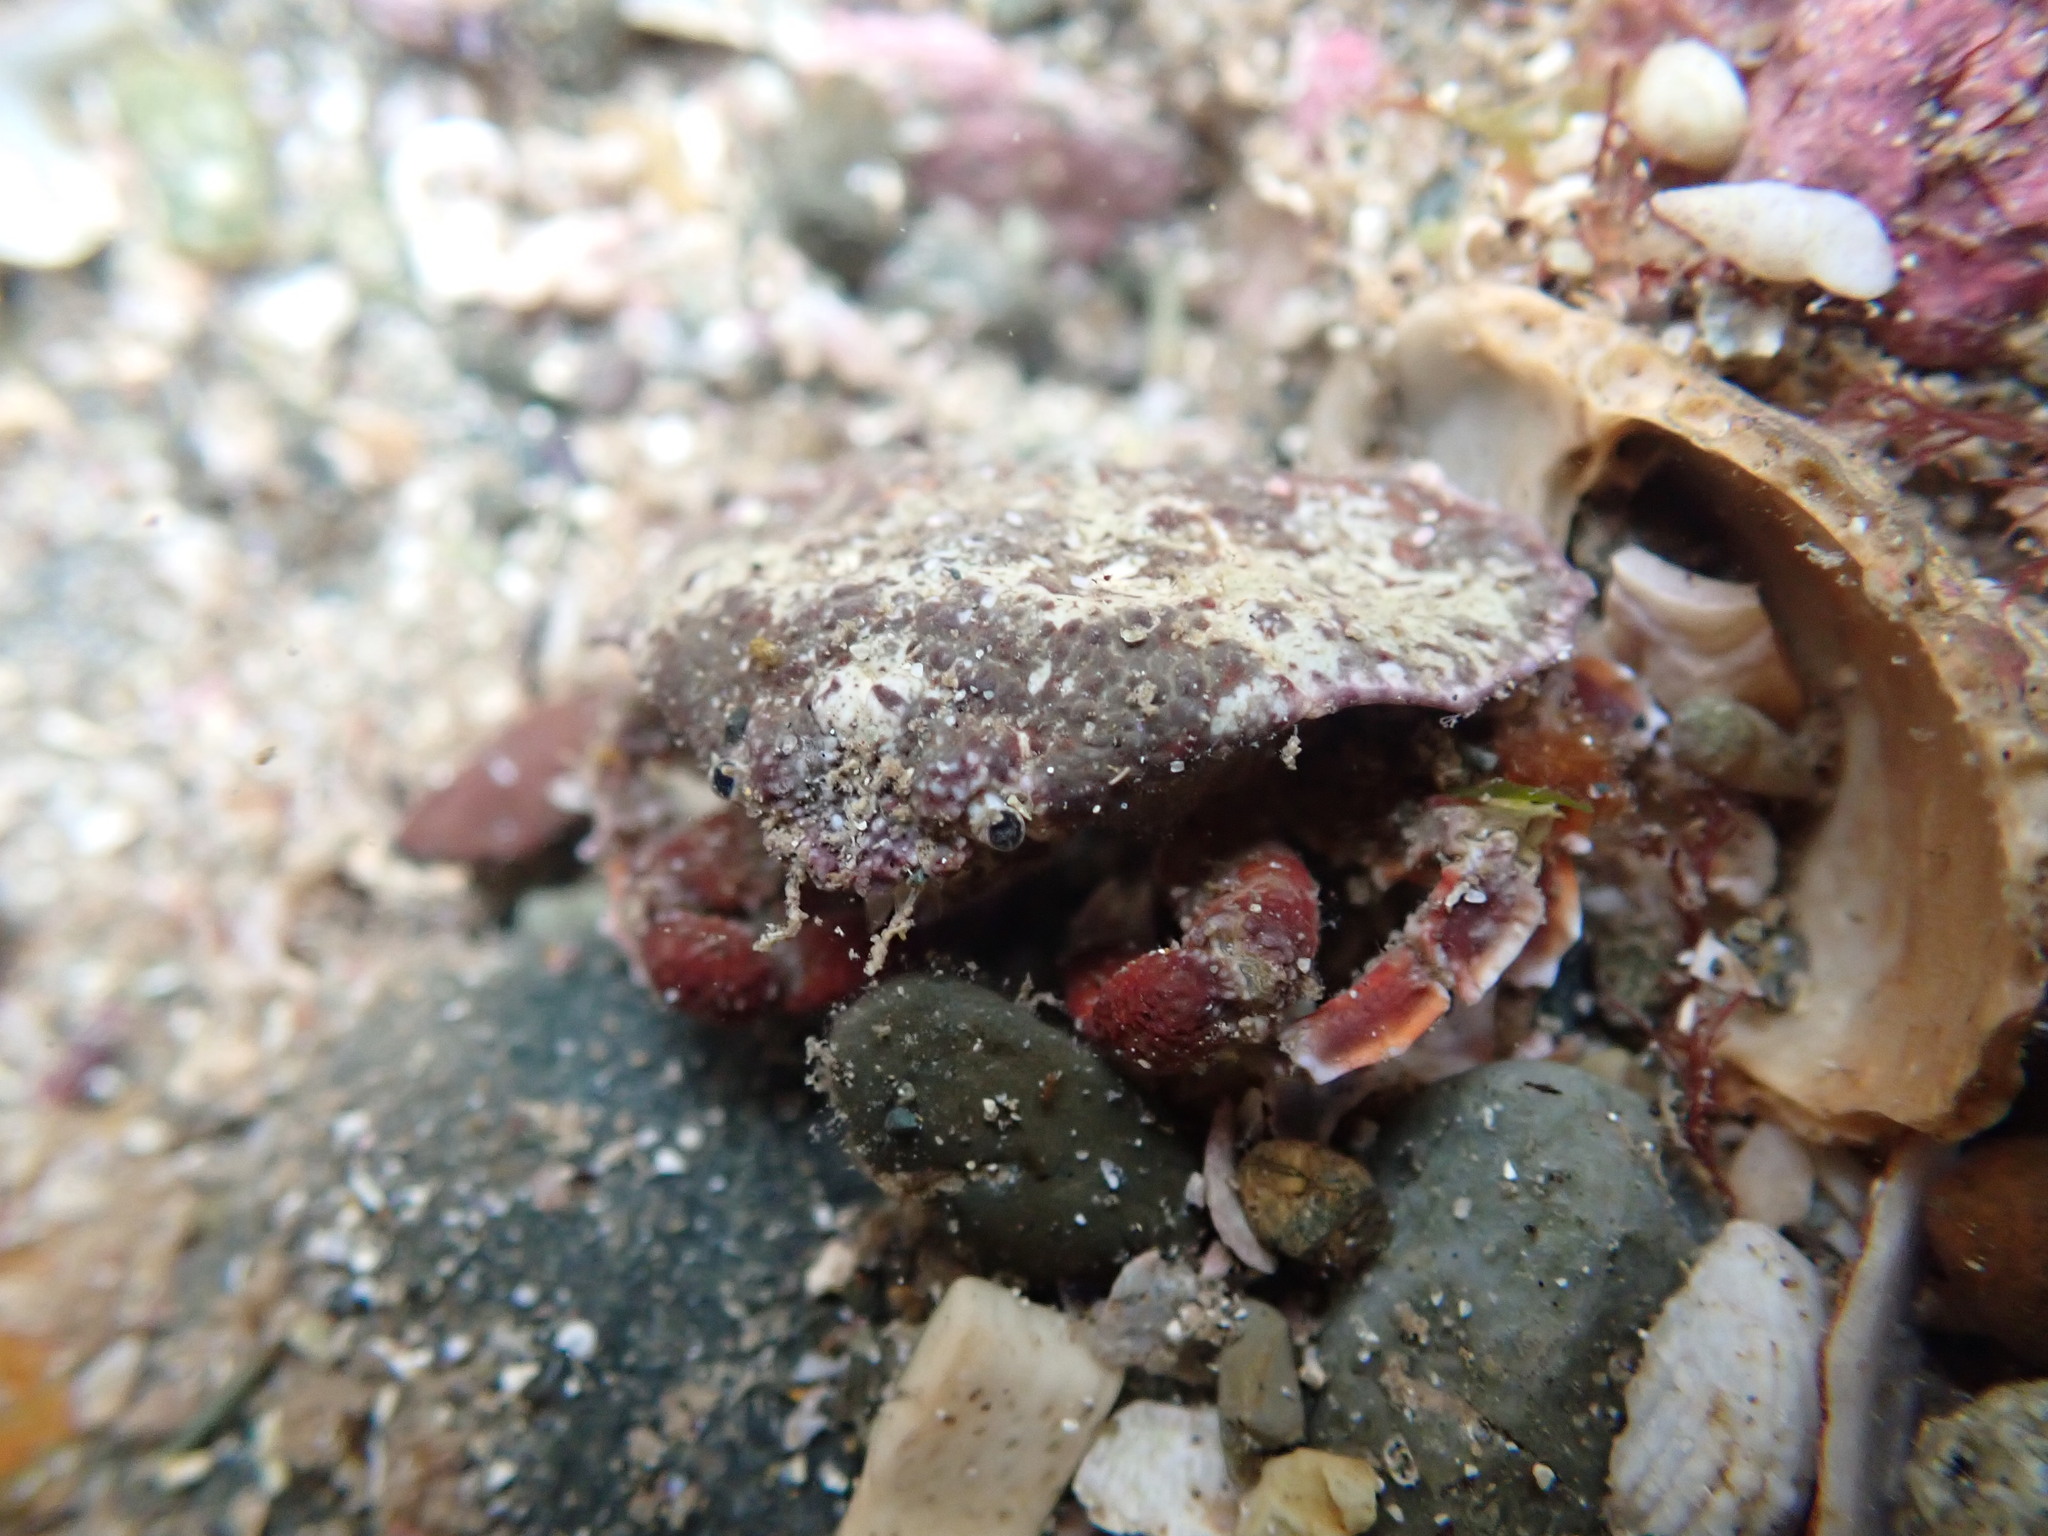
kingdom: Animalia
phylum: Arthropoda
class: Malacostraca
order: Decapoda
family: Majidae
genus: Eurynolambrus
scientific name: Eurynolambrus australis
